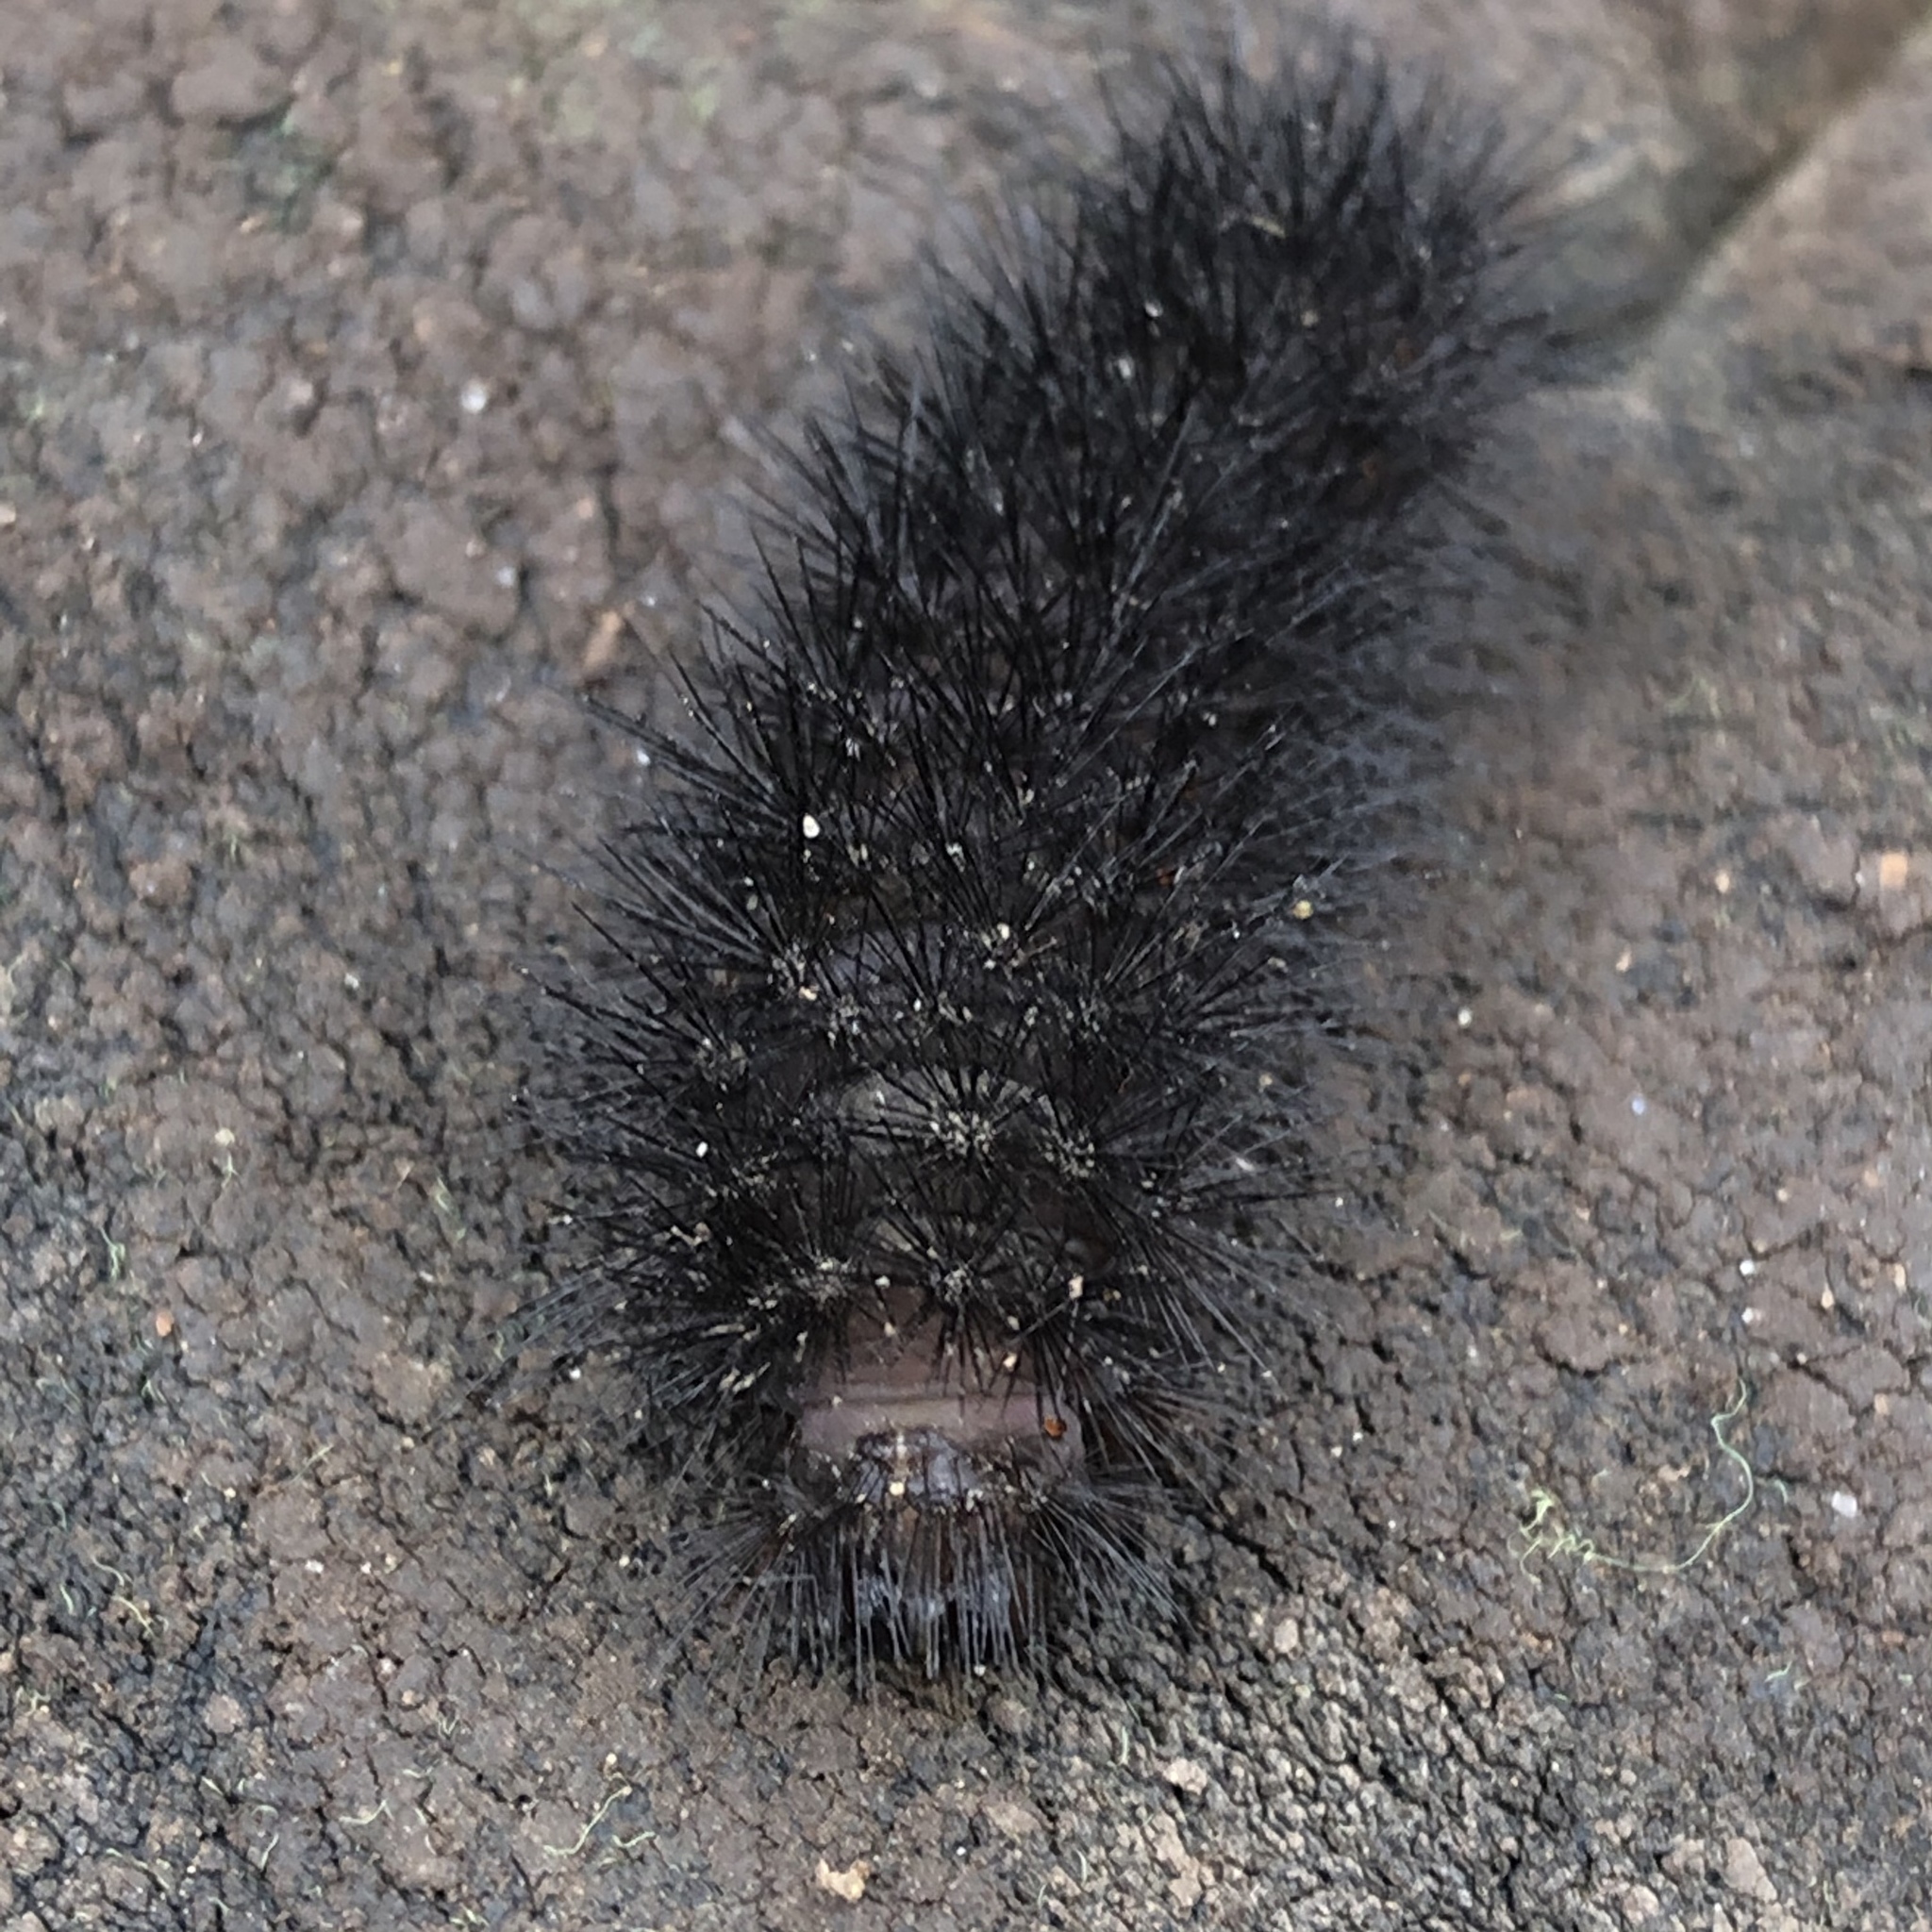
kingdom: Animalia
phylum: Arthropoda
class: Insecta
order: Lepidoptera
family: Erebidae
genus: Hypercompe
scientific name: Hypercompe scribonia
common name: Giant leopard moth
